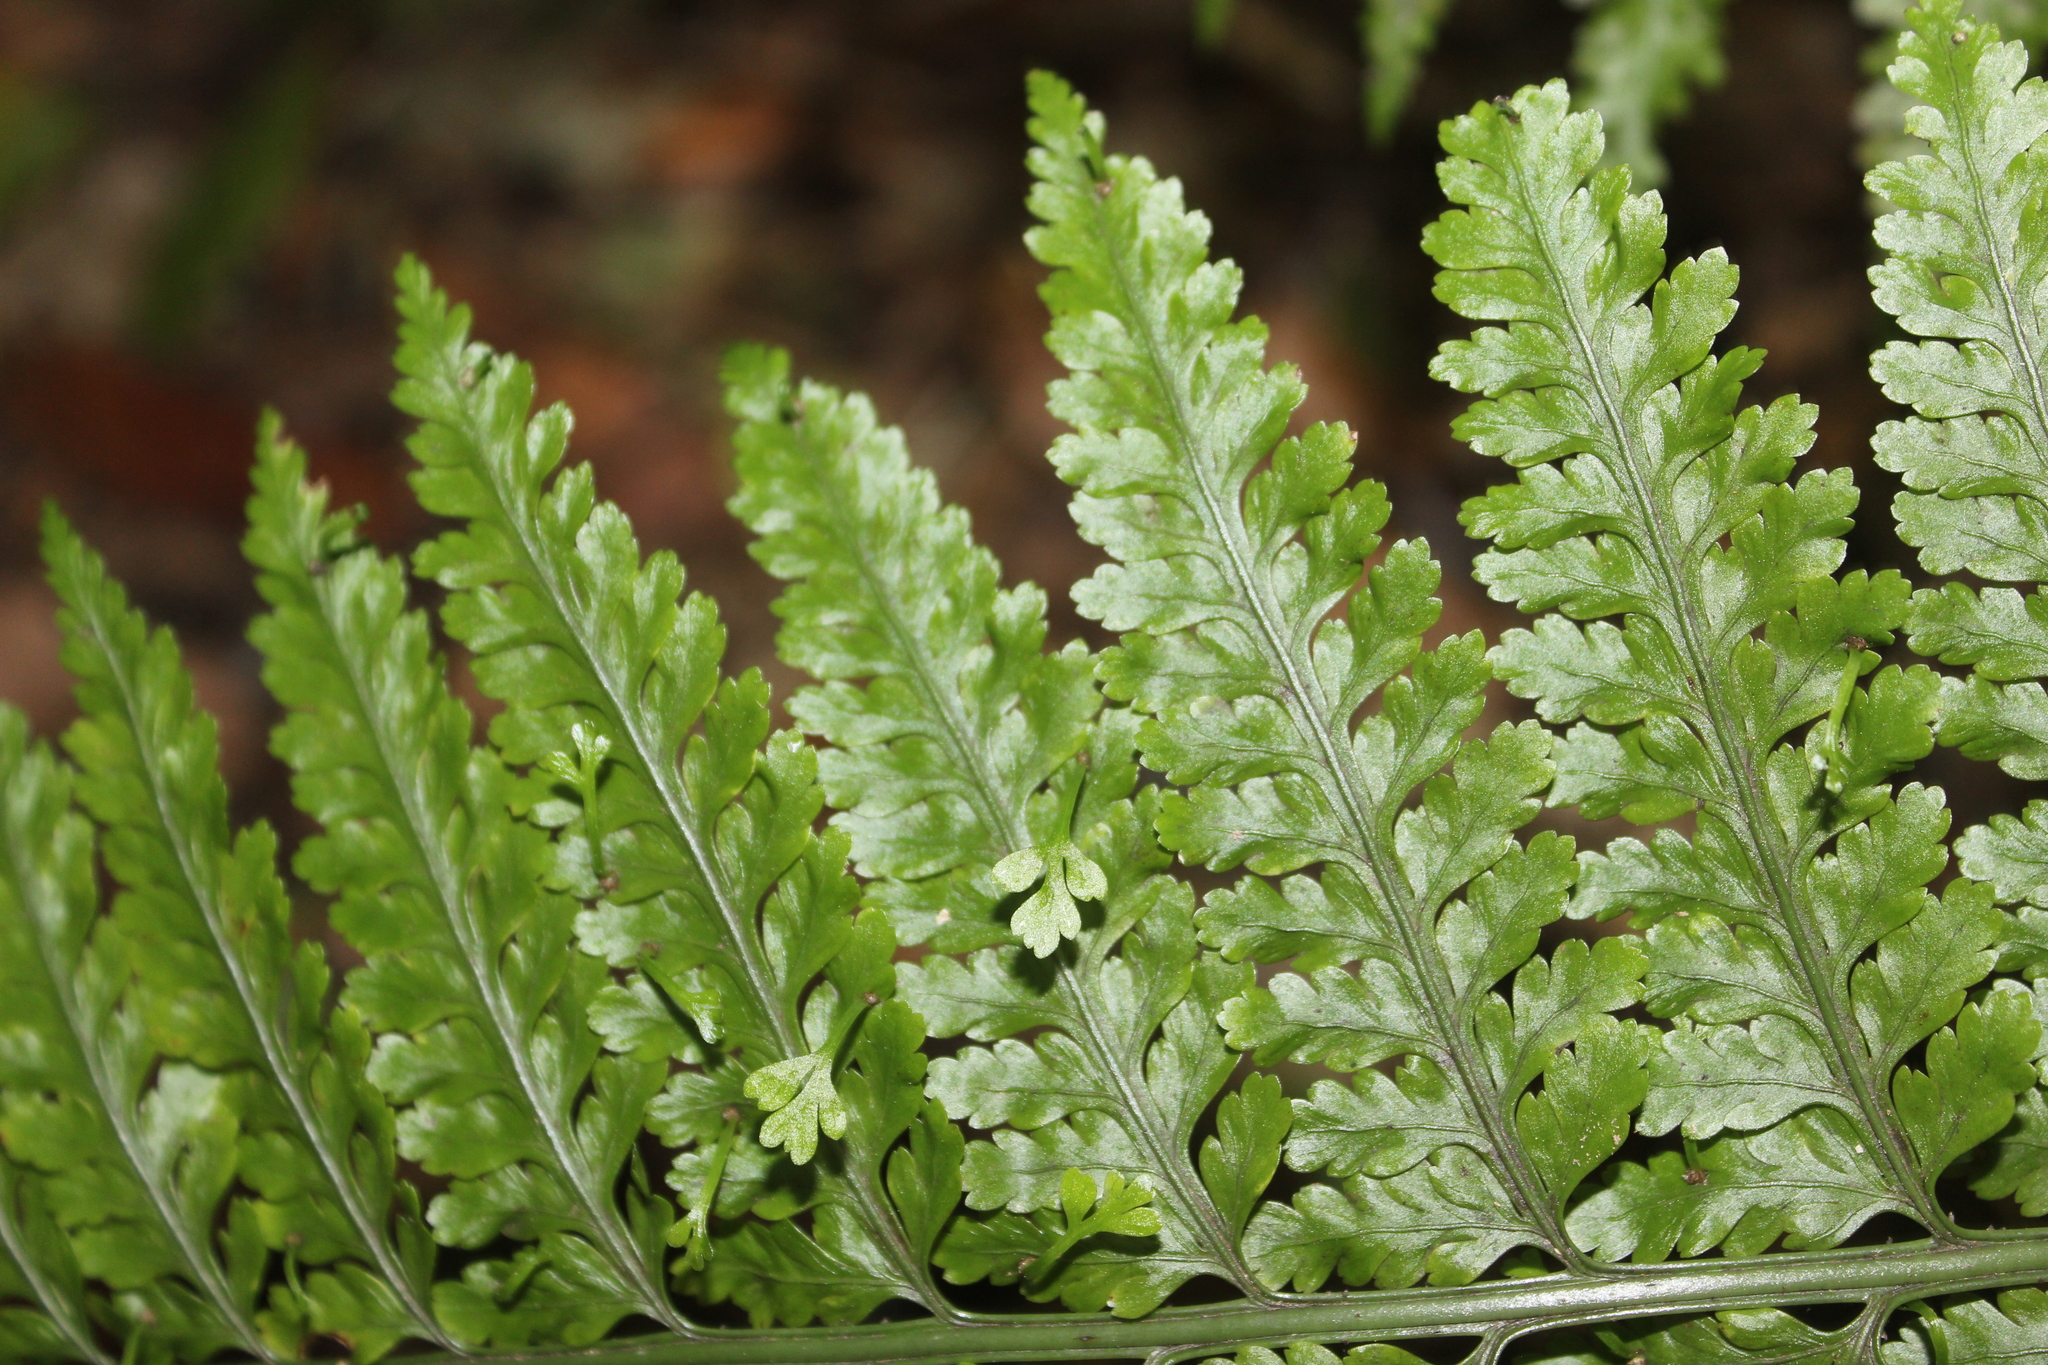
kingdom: Plantae
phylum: Tracheophyta
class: Polypodiopsida
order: Polypodiales
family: Aspleniaceae
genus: Asplenium
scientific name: Asplenium bulbiferum
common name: Mother fern
